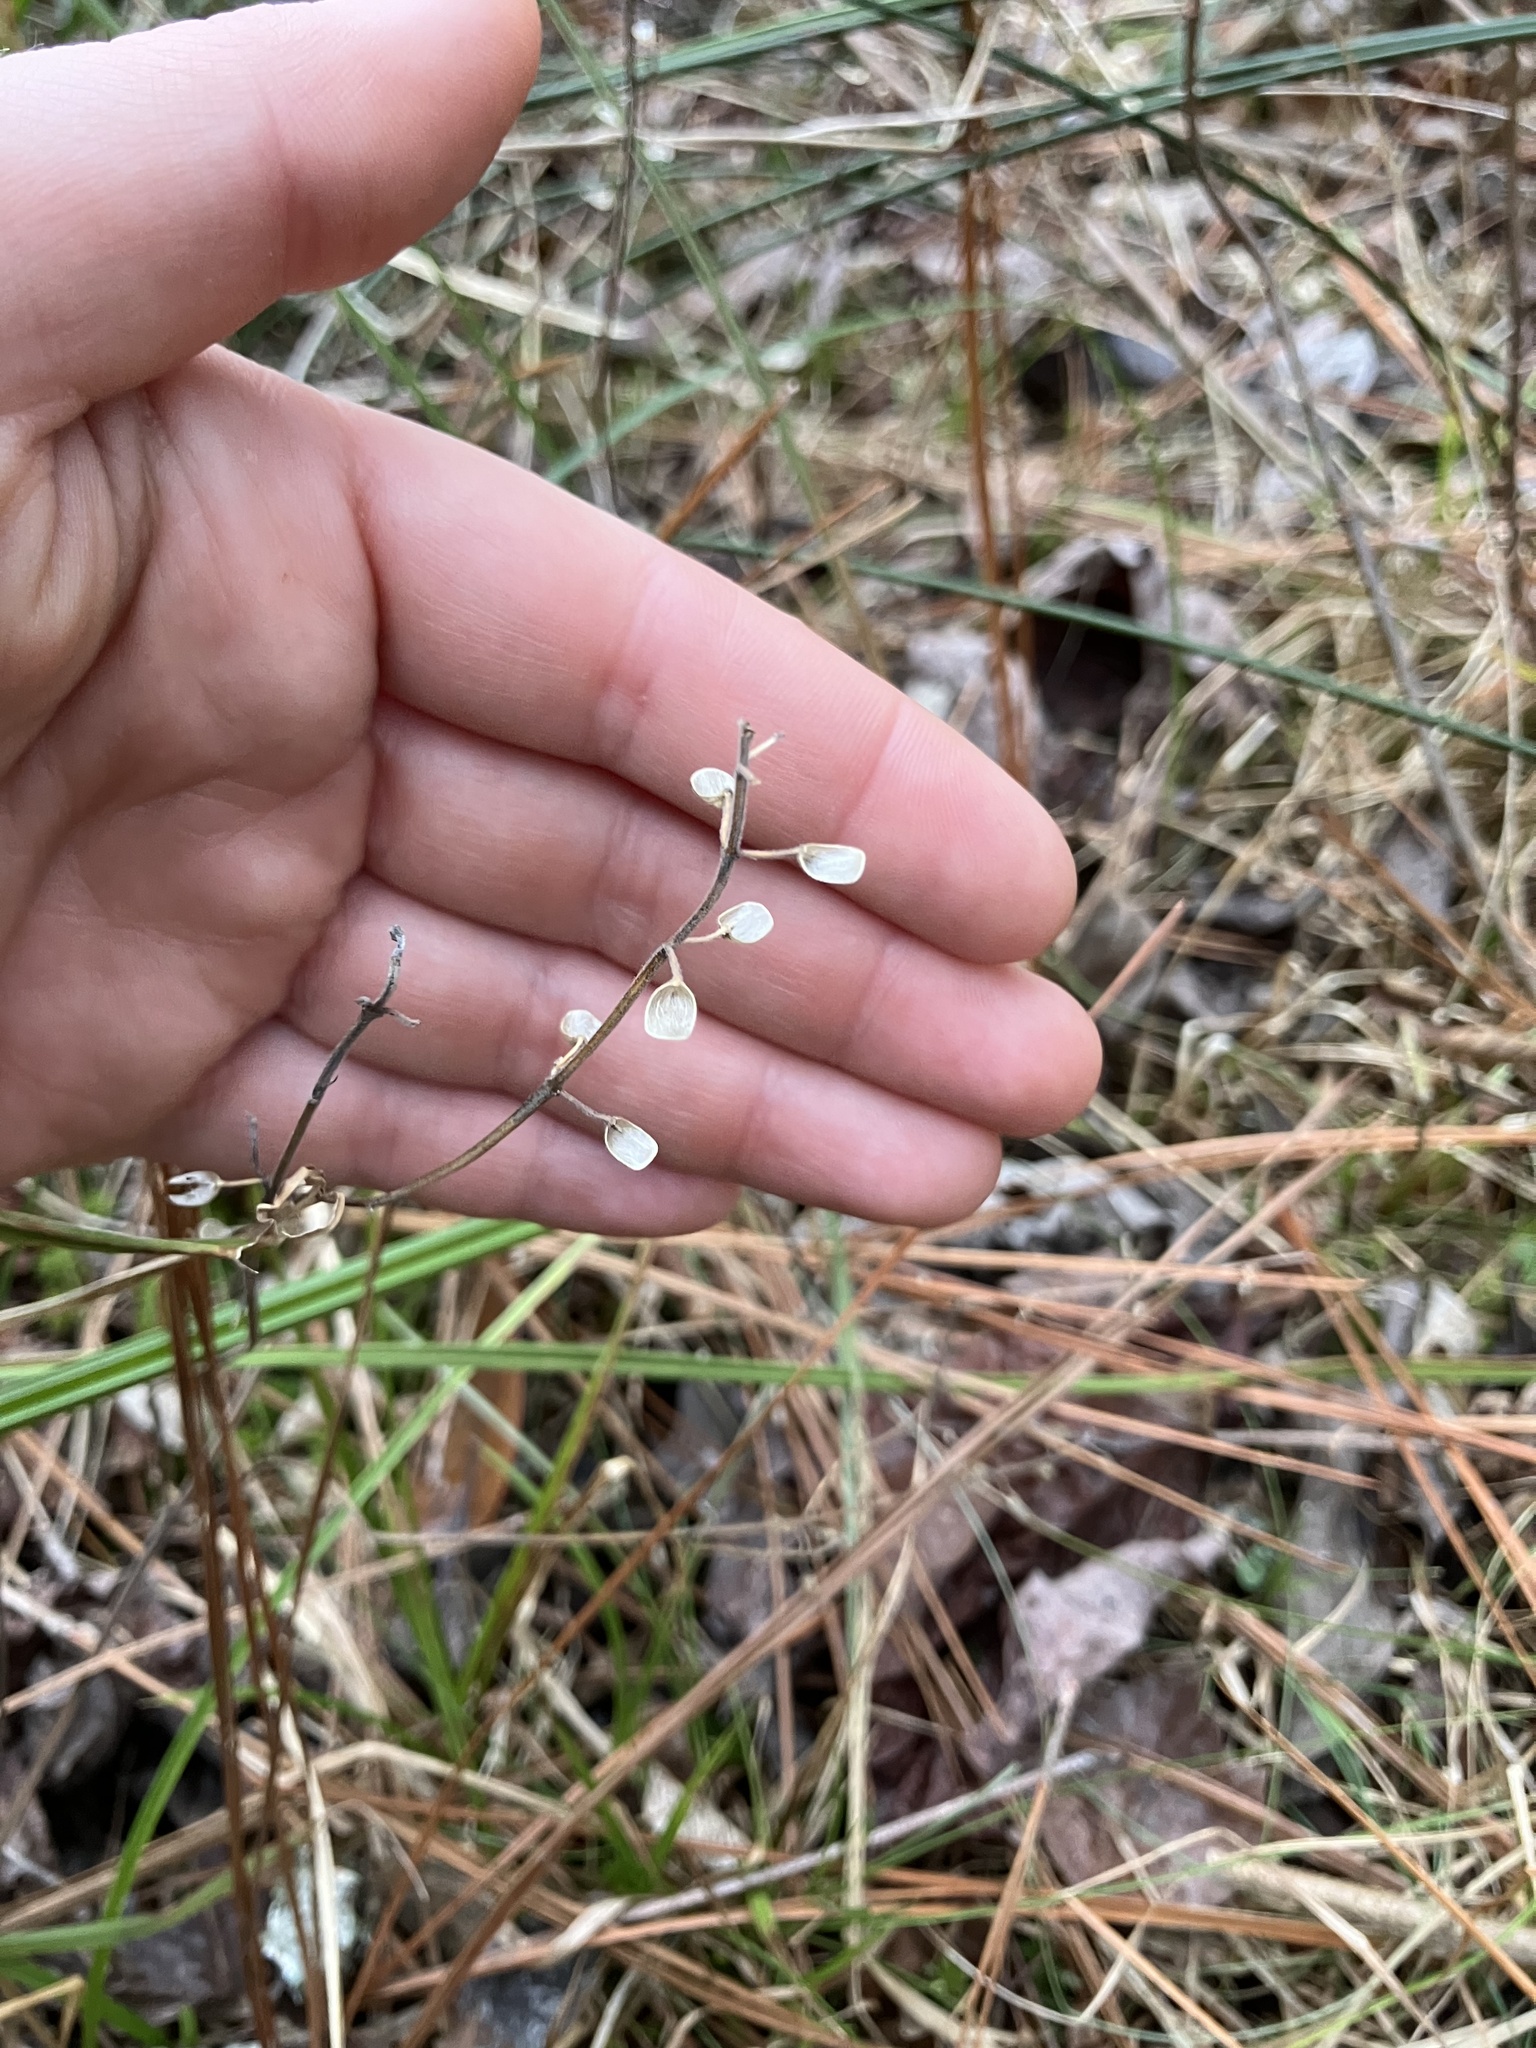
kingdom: Plantae
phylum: Tracheophyta
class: Magnoliopsida
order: Lamiales
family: Lamiaceae
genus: Scutellaria
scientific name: Scutellaria integrifolia
